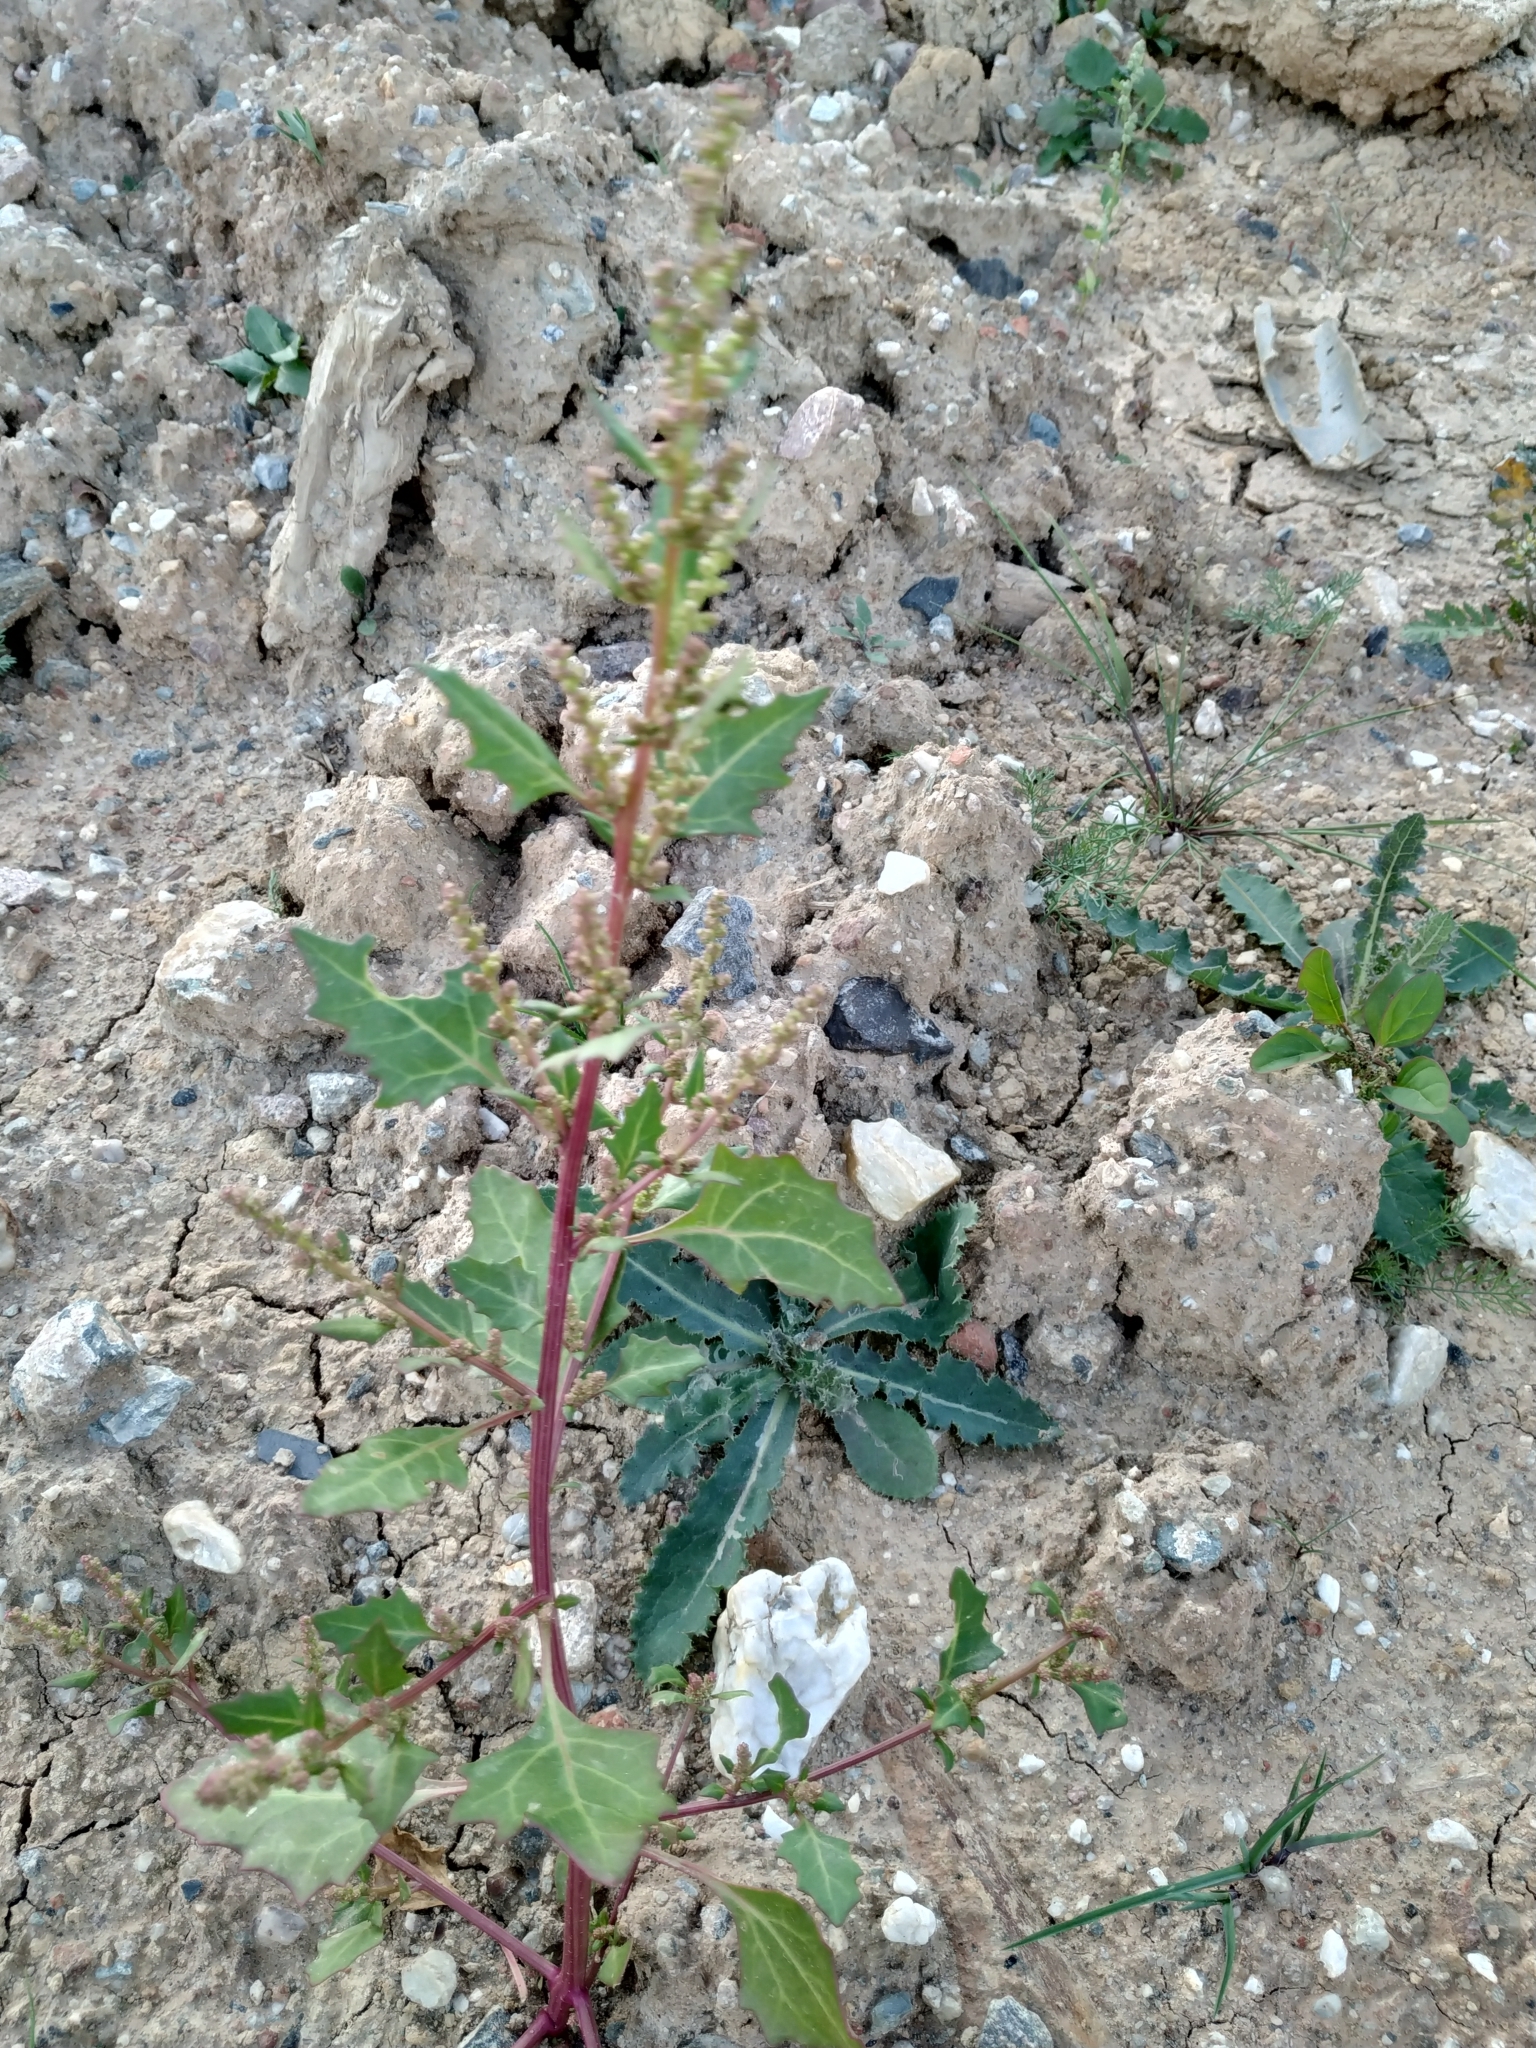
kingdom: Plantae
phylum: Tracheophyta
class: Magnoliopsida
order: Caryophyllales
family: Amaranthaceae
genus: Oxybasis
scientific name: Oxybasis rubra
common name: Red goosefoot
